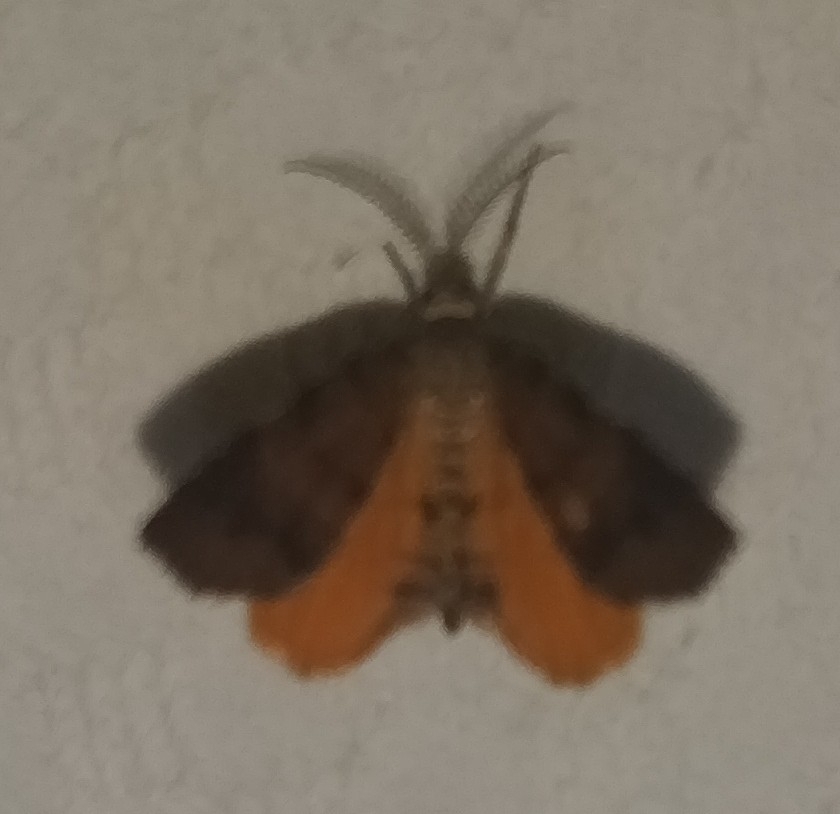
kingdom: Animalia
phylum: Arthropoda
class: Insecta
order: Lepidoptera
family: Geometridae
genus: Mellilla
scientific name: Mellilla xanthometata
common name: Orange wing moth
